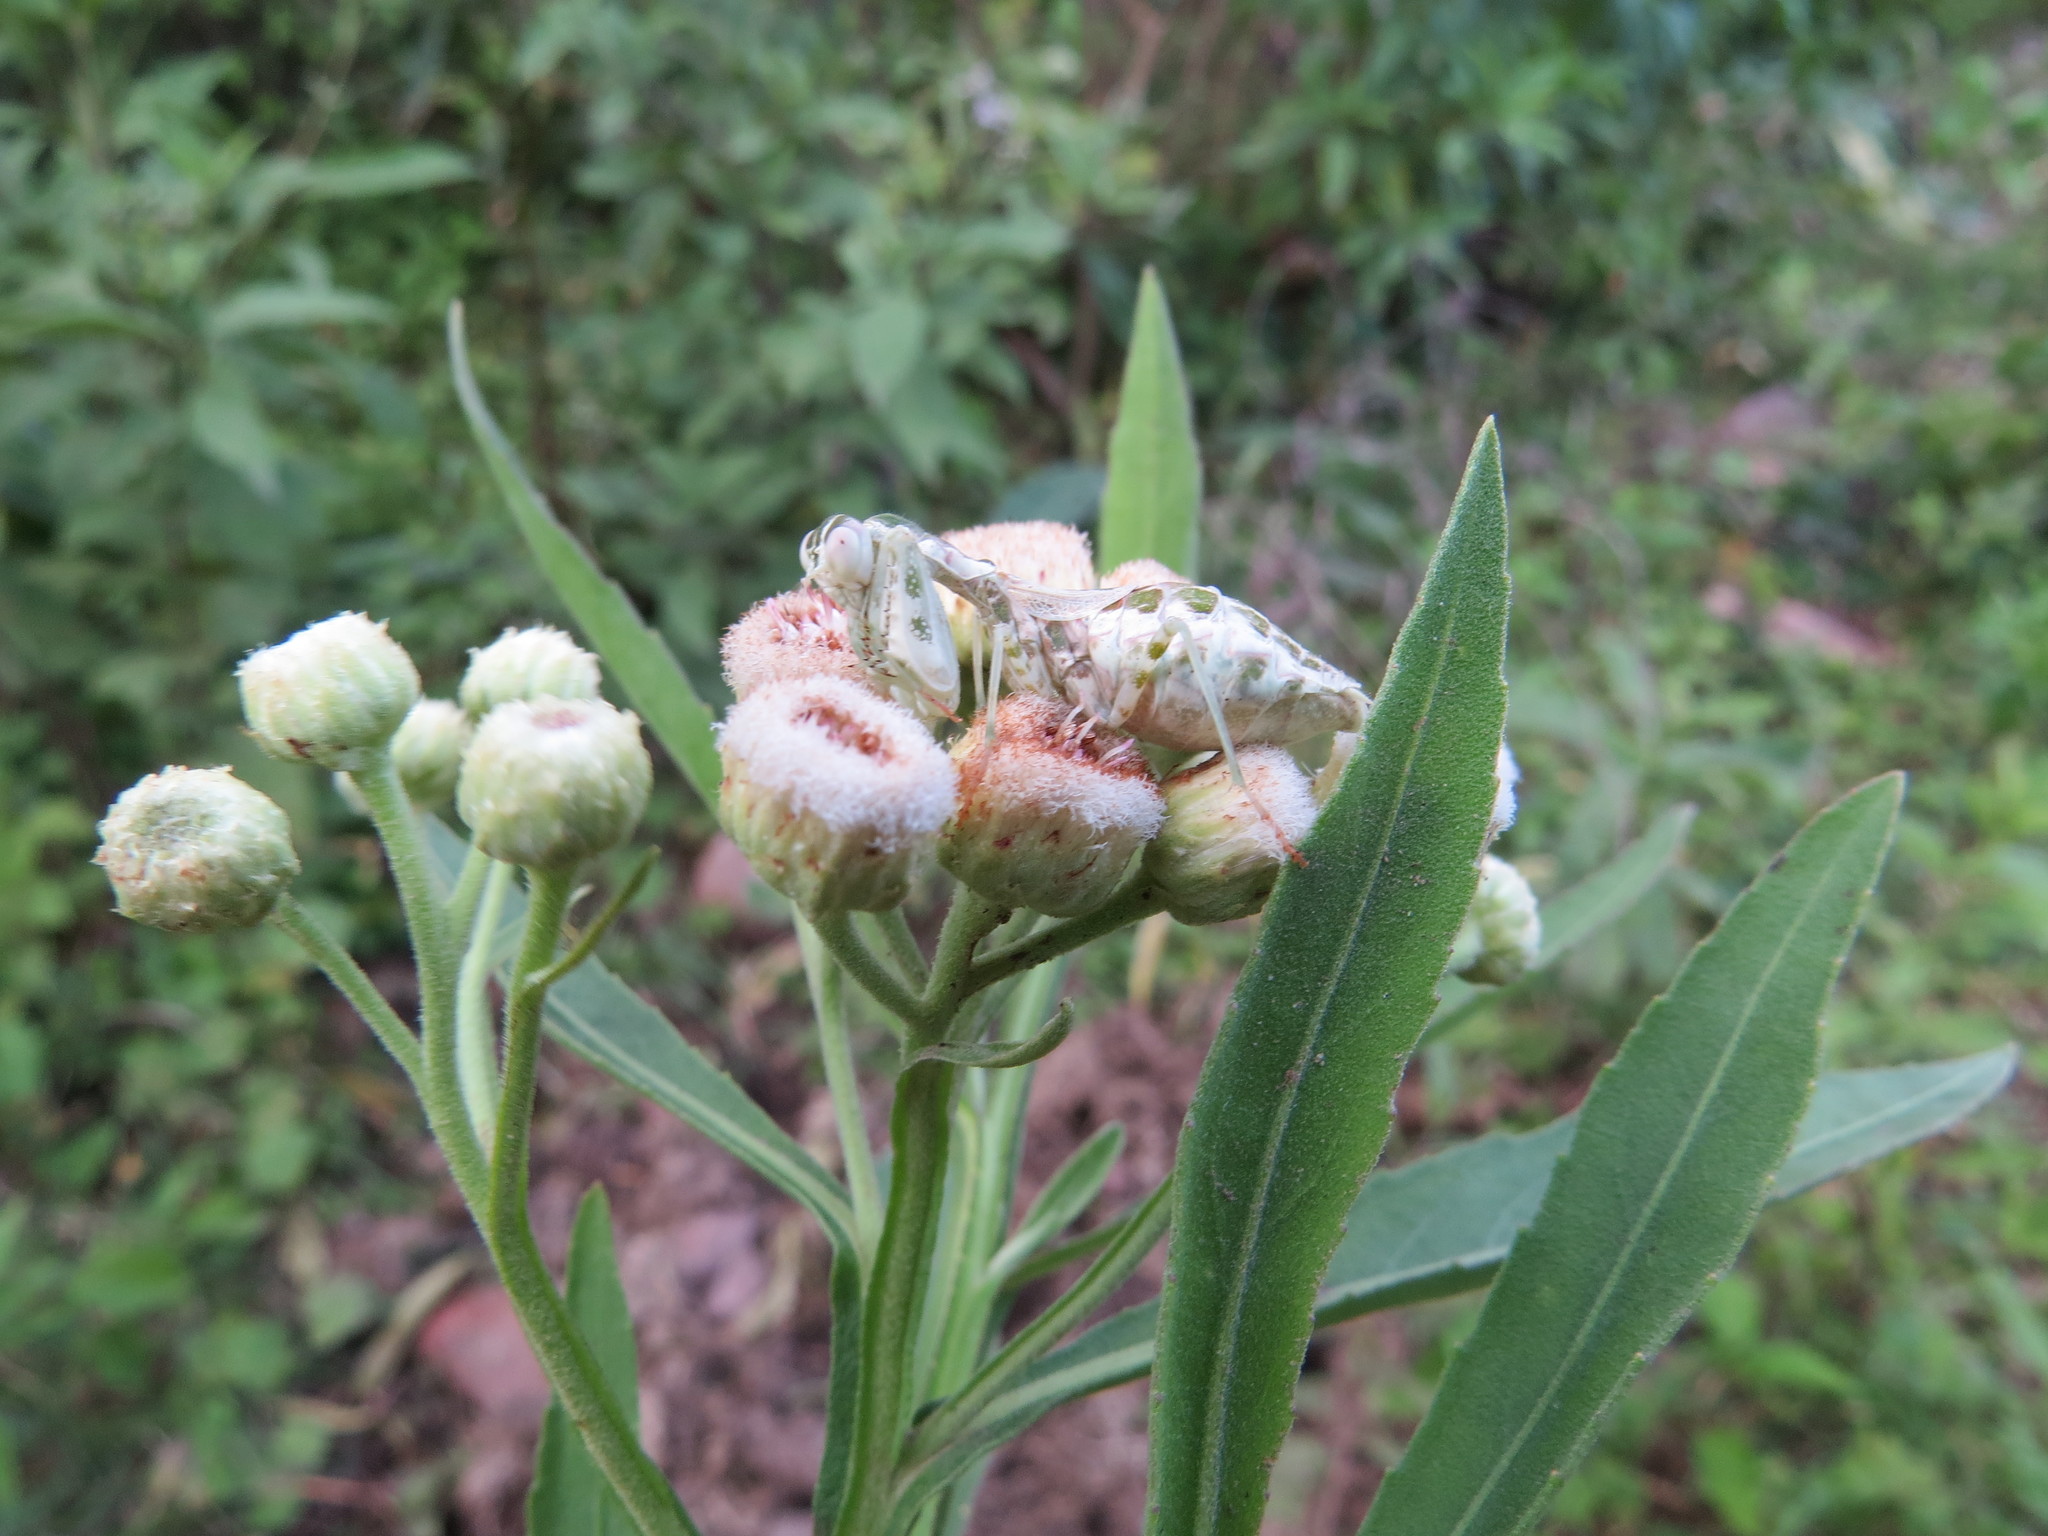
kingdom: Plantae
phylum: Tracheophyta
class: Magnoliopsida
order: Asterales
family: Asteraceae
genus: Pluchea
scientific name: Pluchea sagittalis
